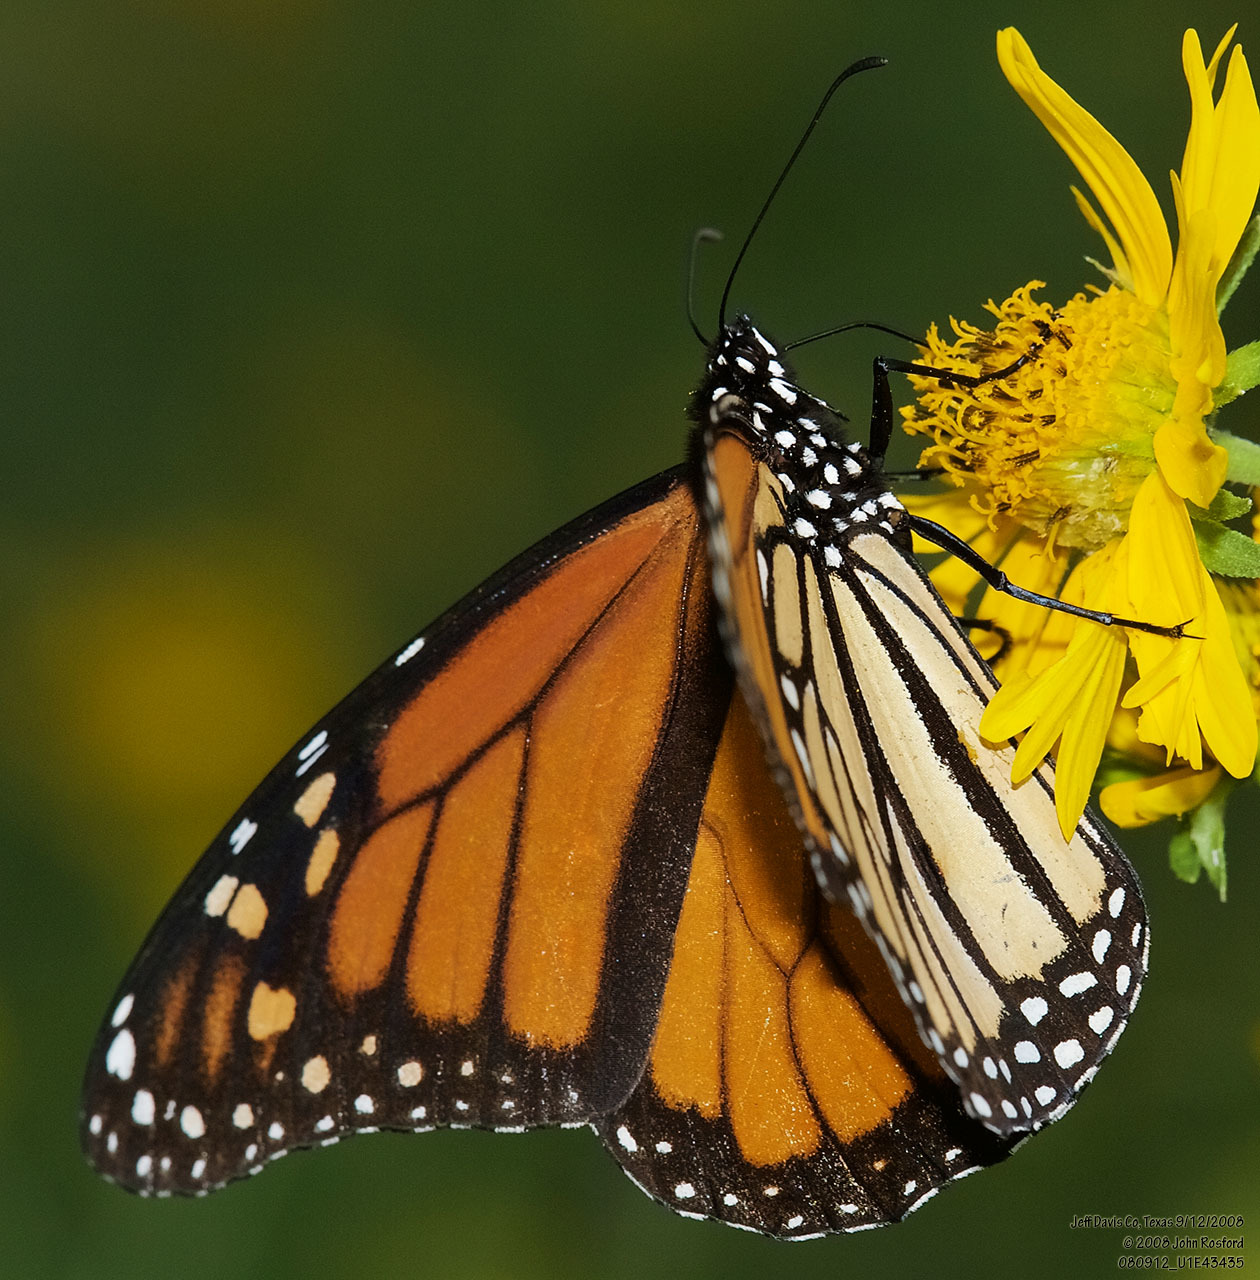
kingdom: Animalia
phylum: Arthropoda
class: Insecta
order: Lepidoptera
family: Nymphalidae
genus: Danaus
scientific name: Danaus plexippus
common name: Monarch
